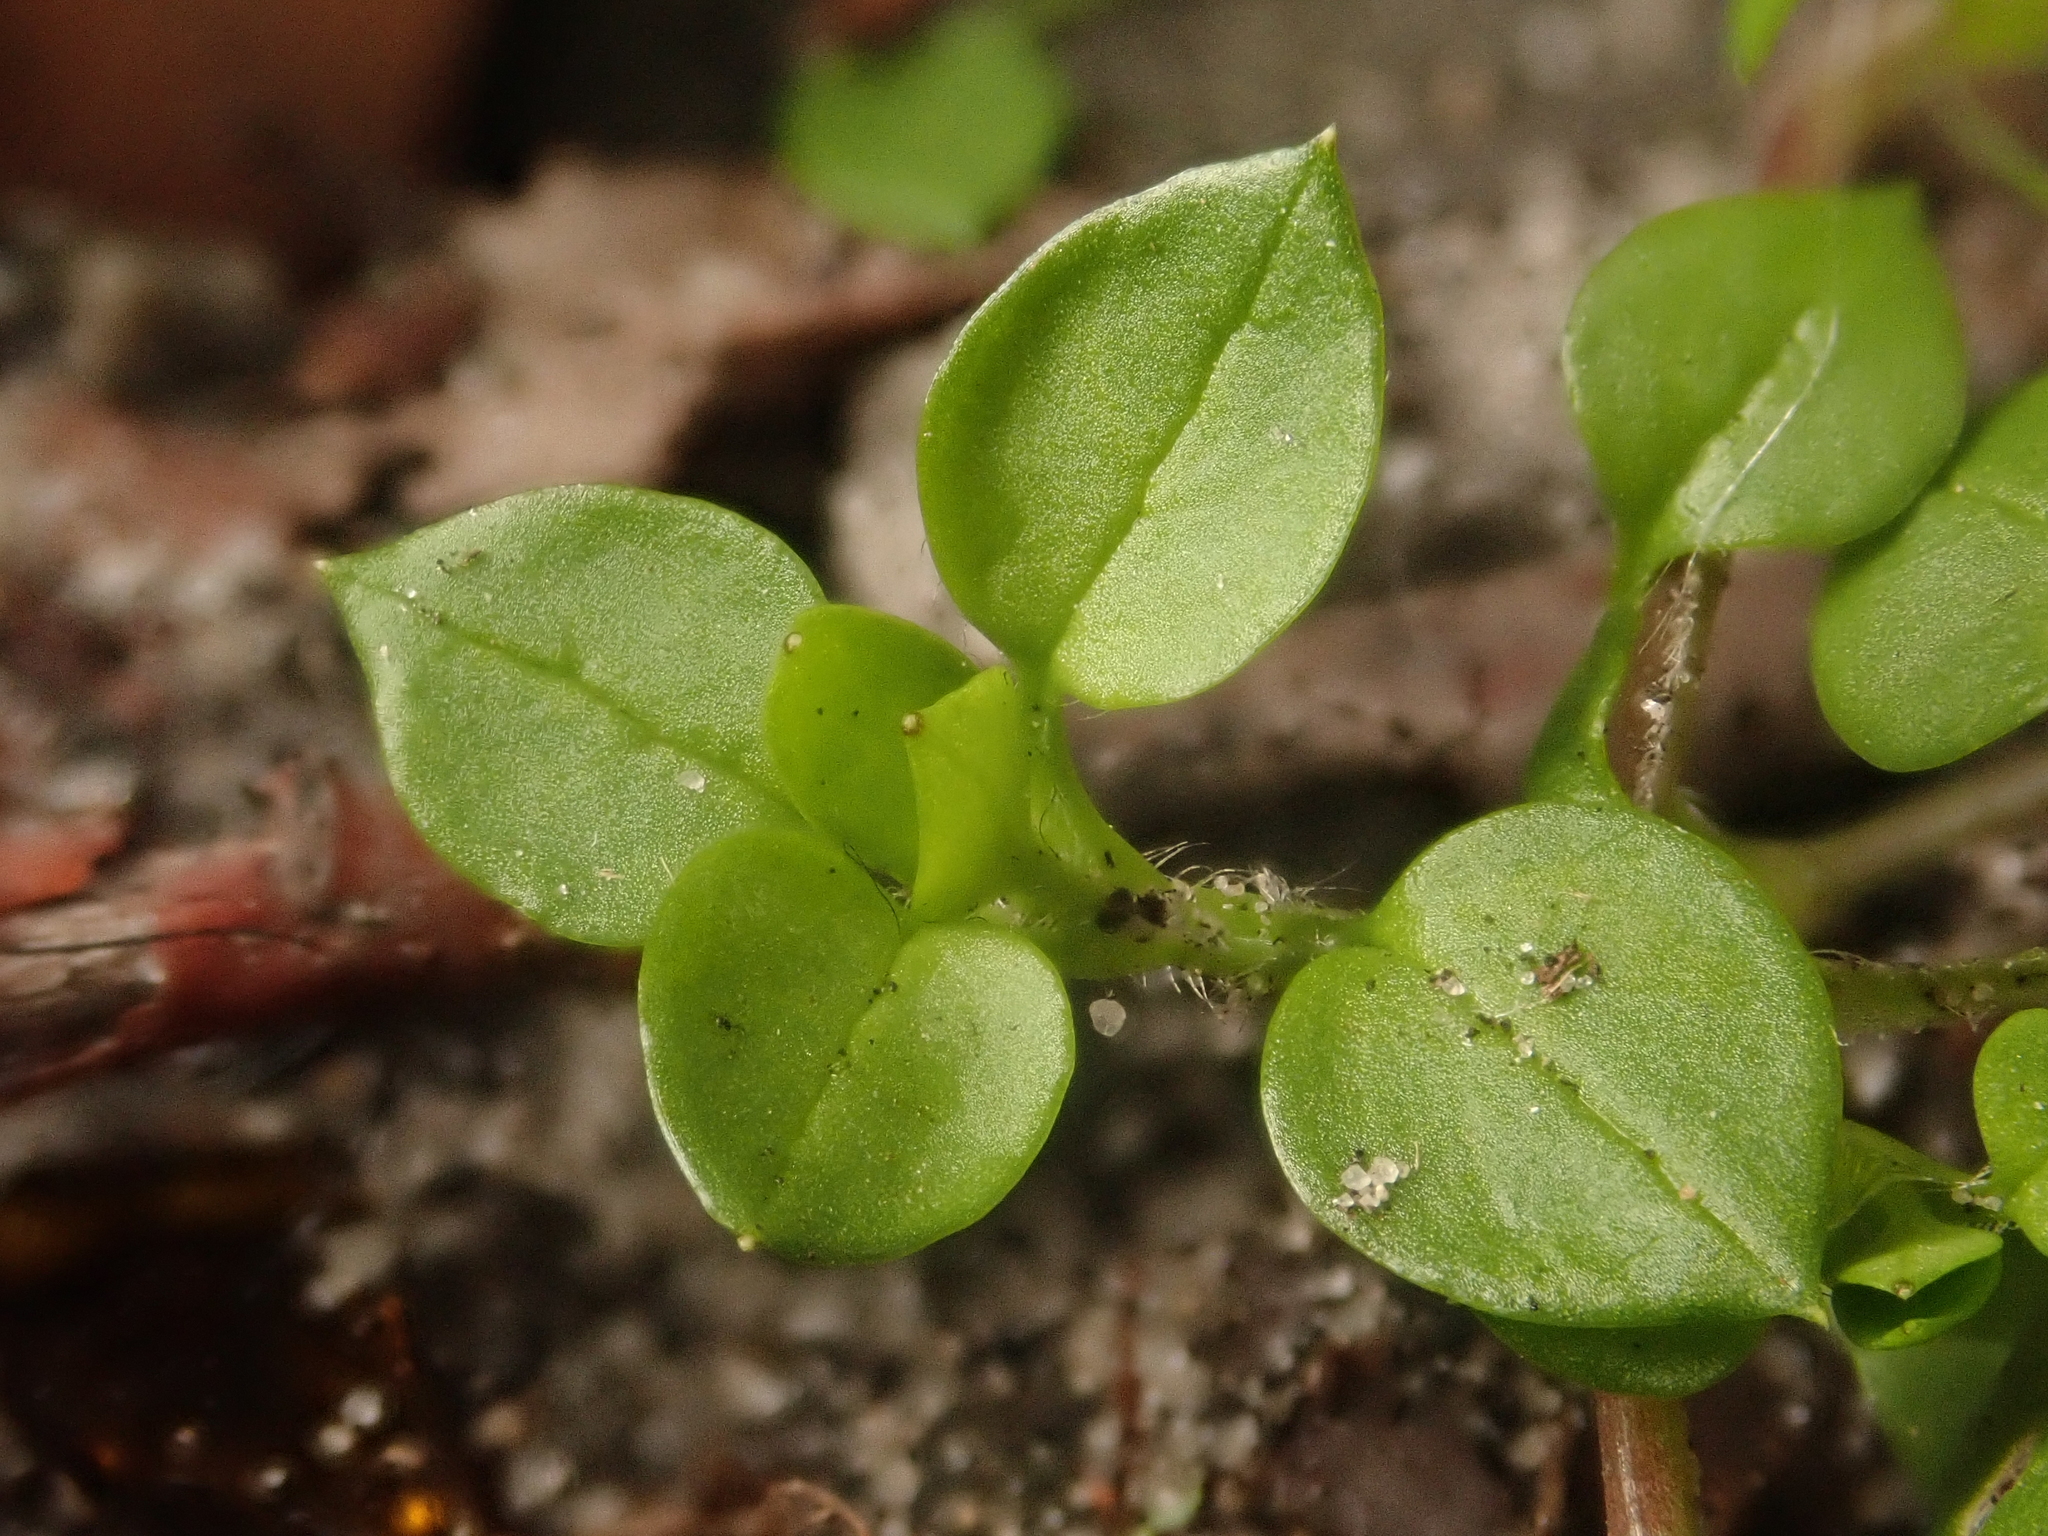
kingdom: Plantae
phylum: Tracheophyta
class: Magnoliopsida
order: Caryophyllales
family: Caryophyllaceae
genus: Stellaria
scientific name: Stellaria media
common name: Common chickweed
